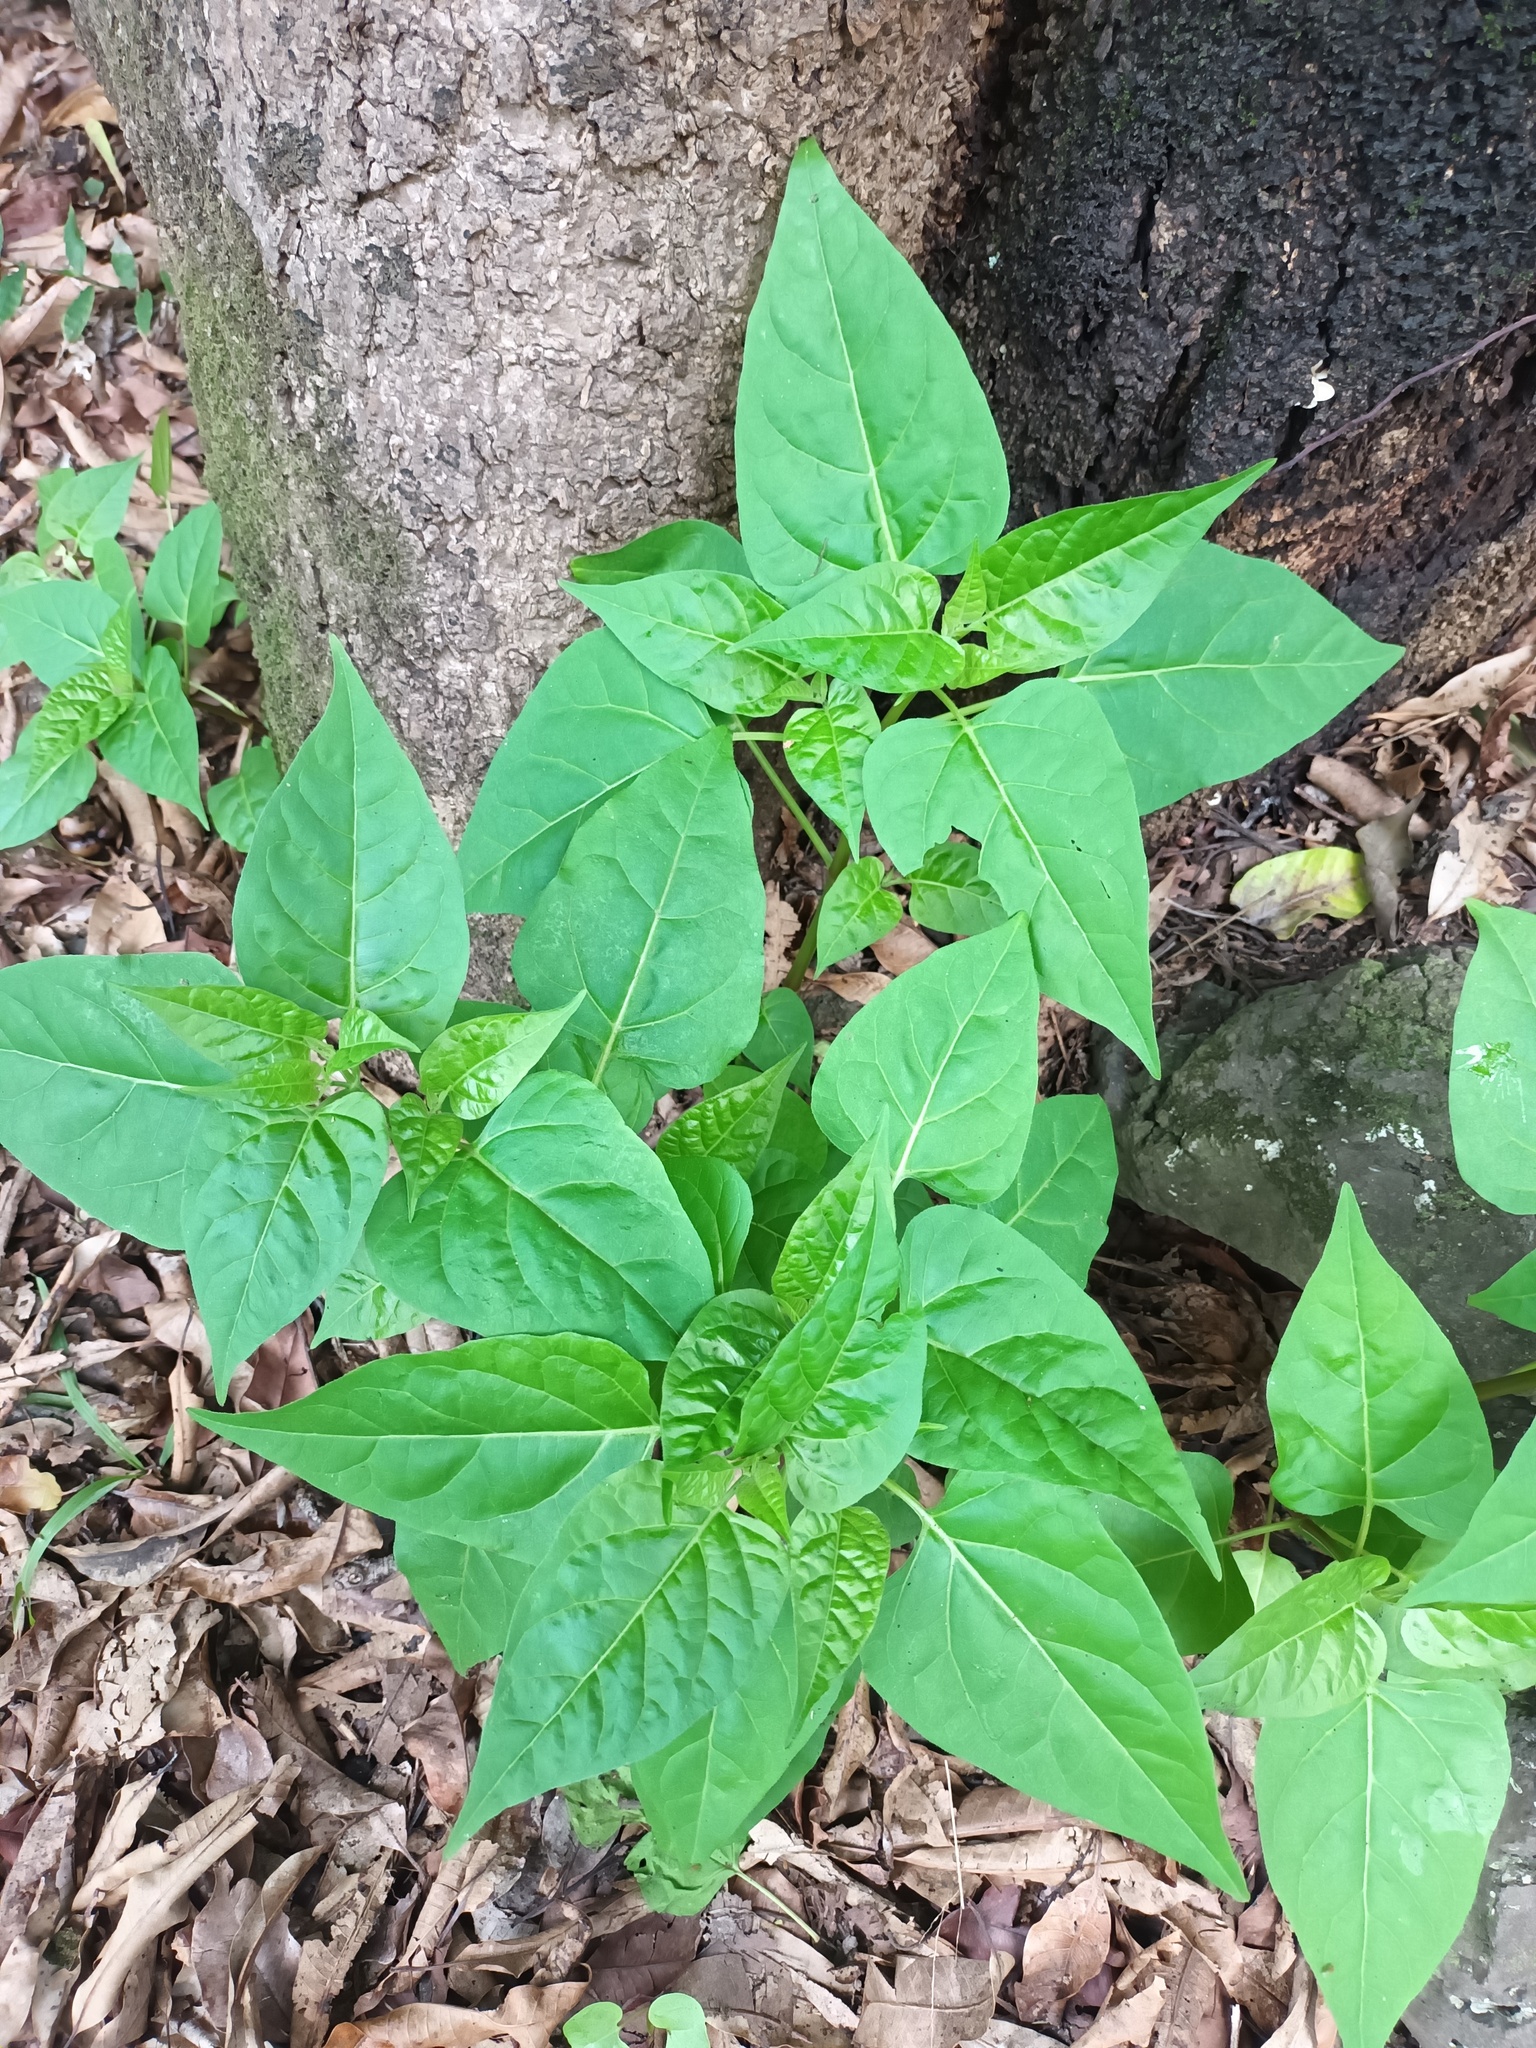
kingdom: Plantae
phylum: Tracheophyta
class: Magnoliopsida
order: Caryophyllales
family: Nyctaginaceae
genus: Mirabilis
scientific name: Mirabilis jalapa
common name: Marvel-of-peru
